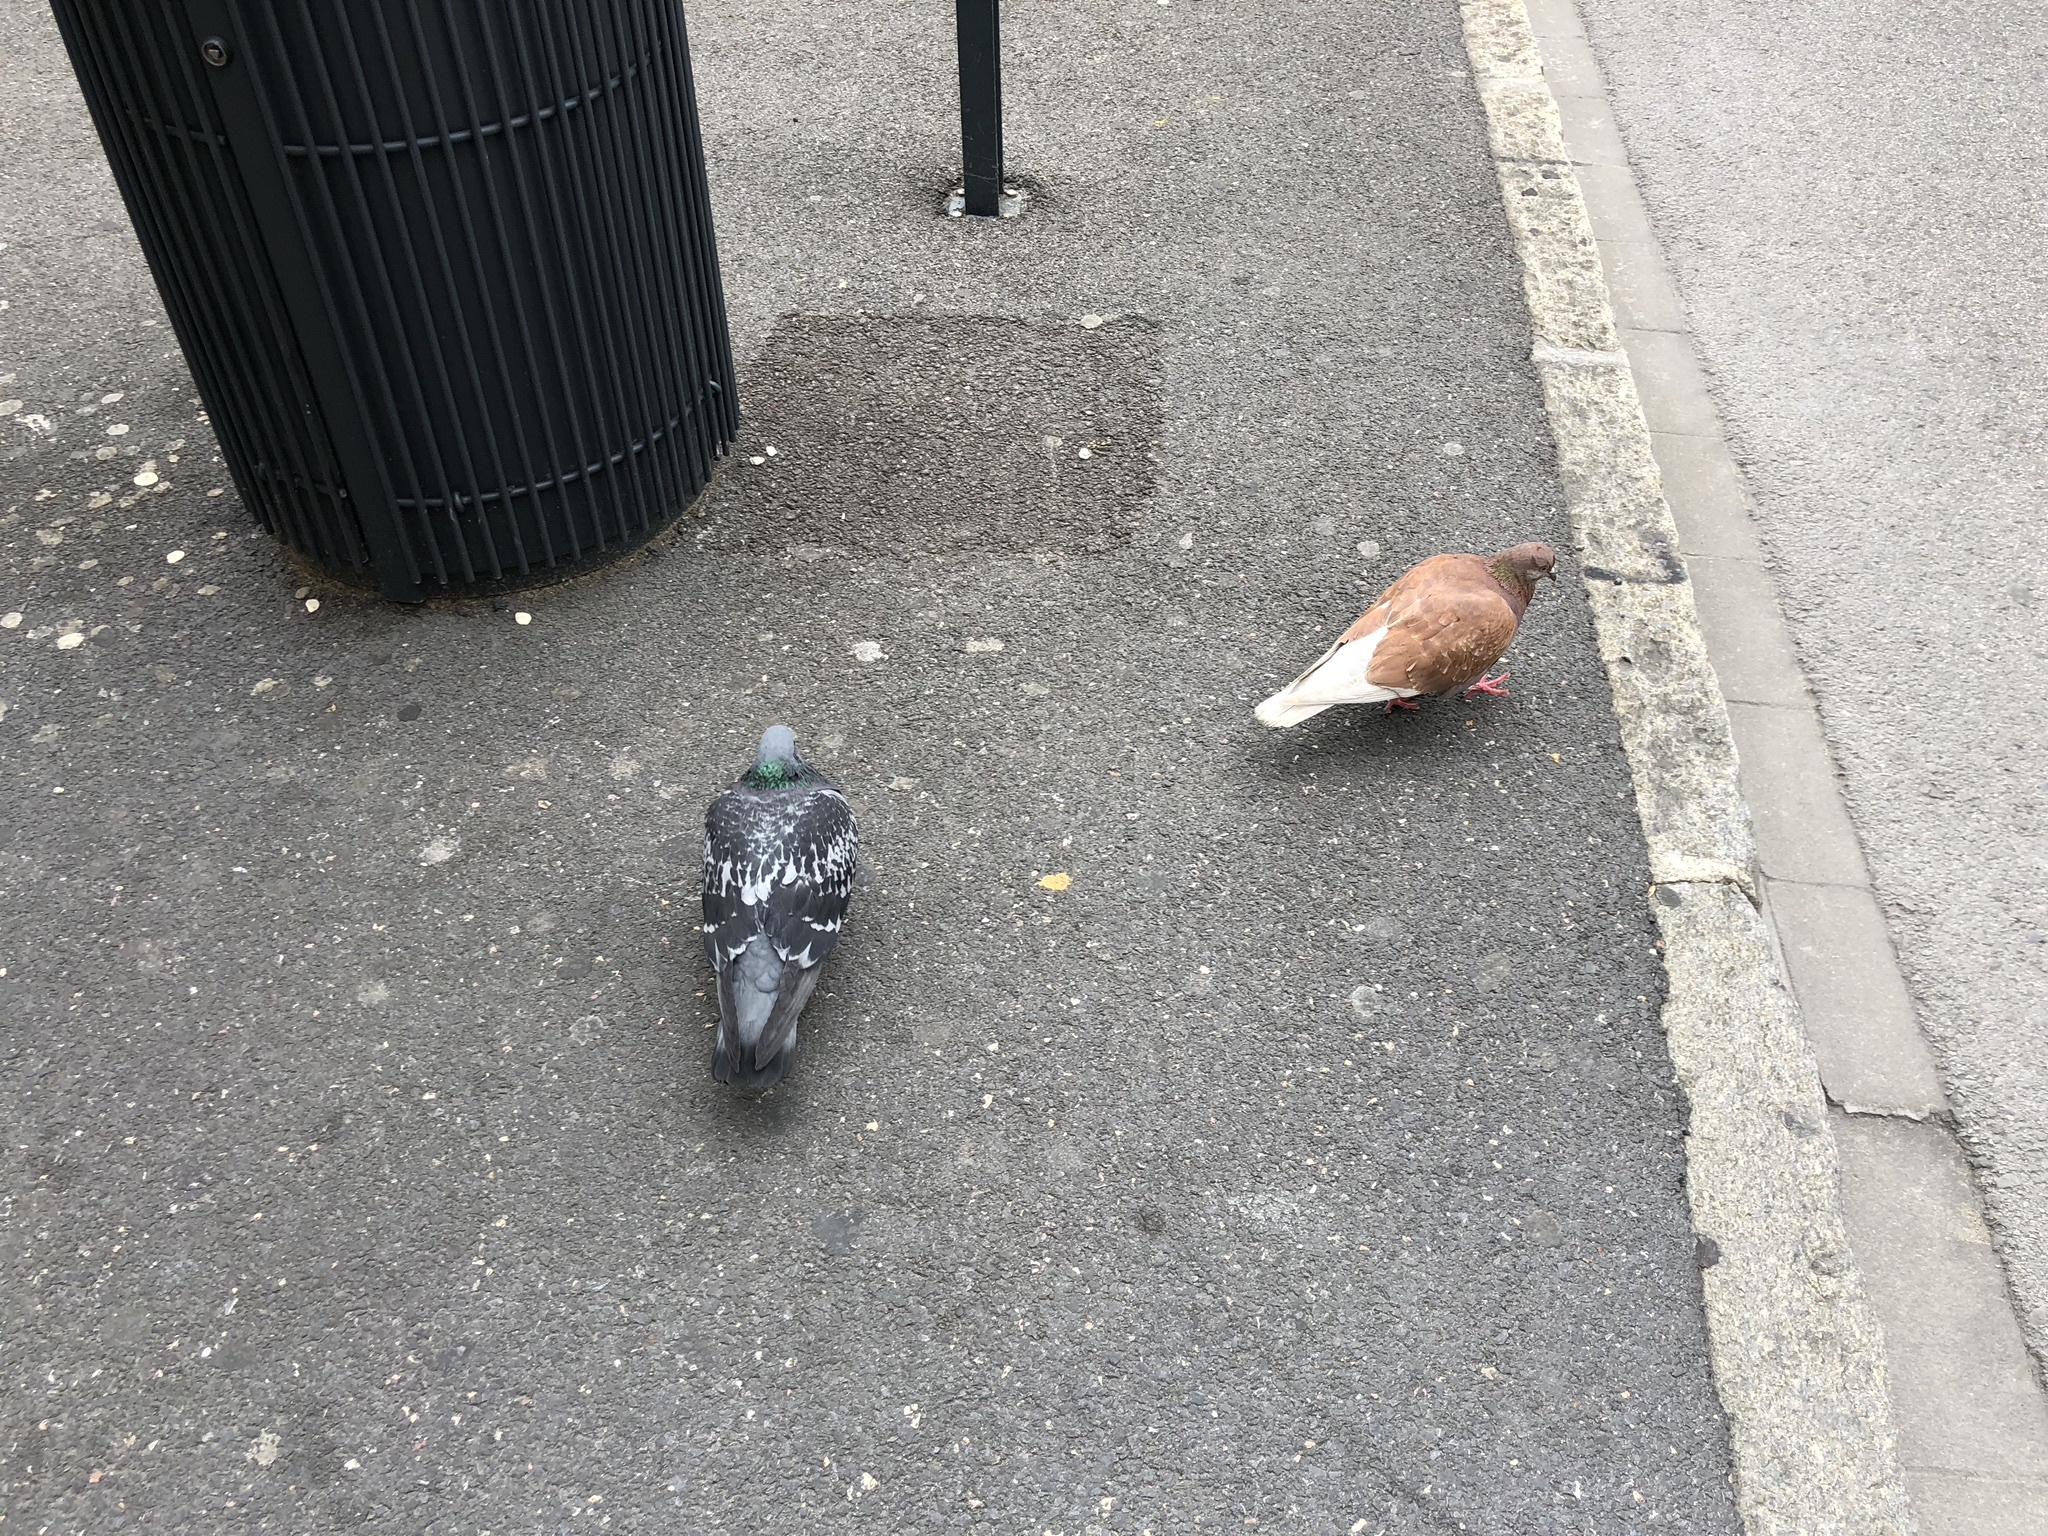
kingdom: Animalia
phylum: Chordata
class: Aves
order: Columbiformes
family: Columbidae
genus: Columba
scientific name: Columba livia
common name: Rock pigeon
